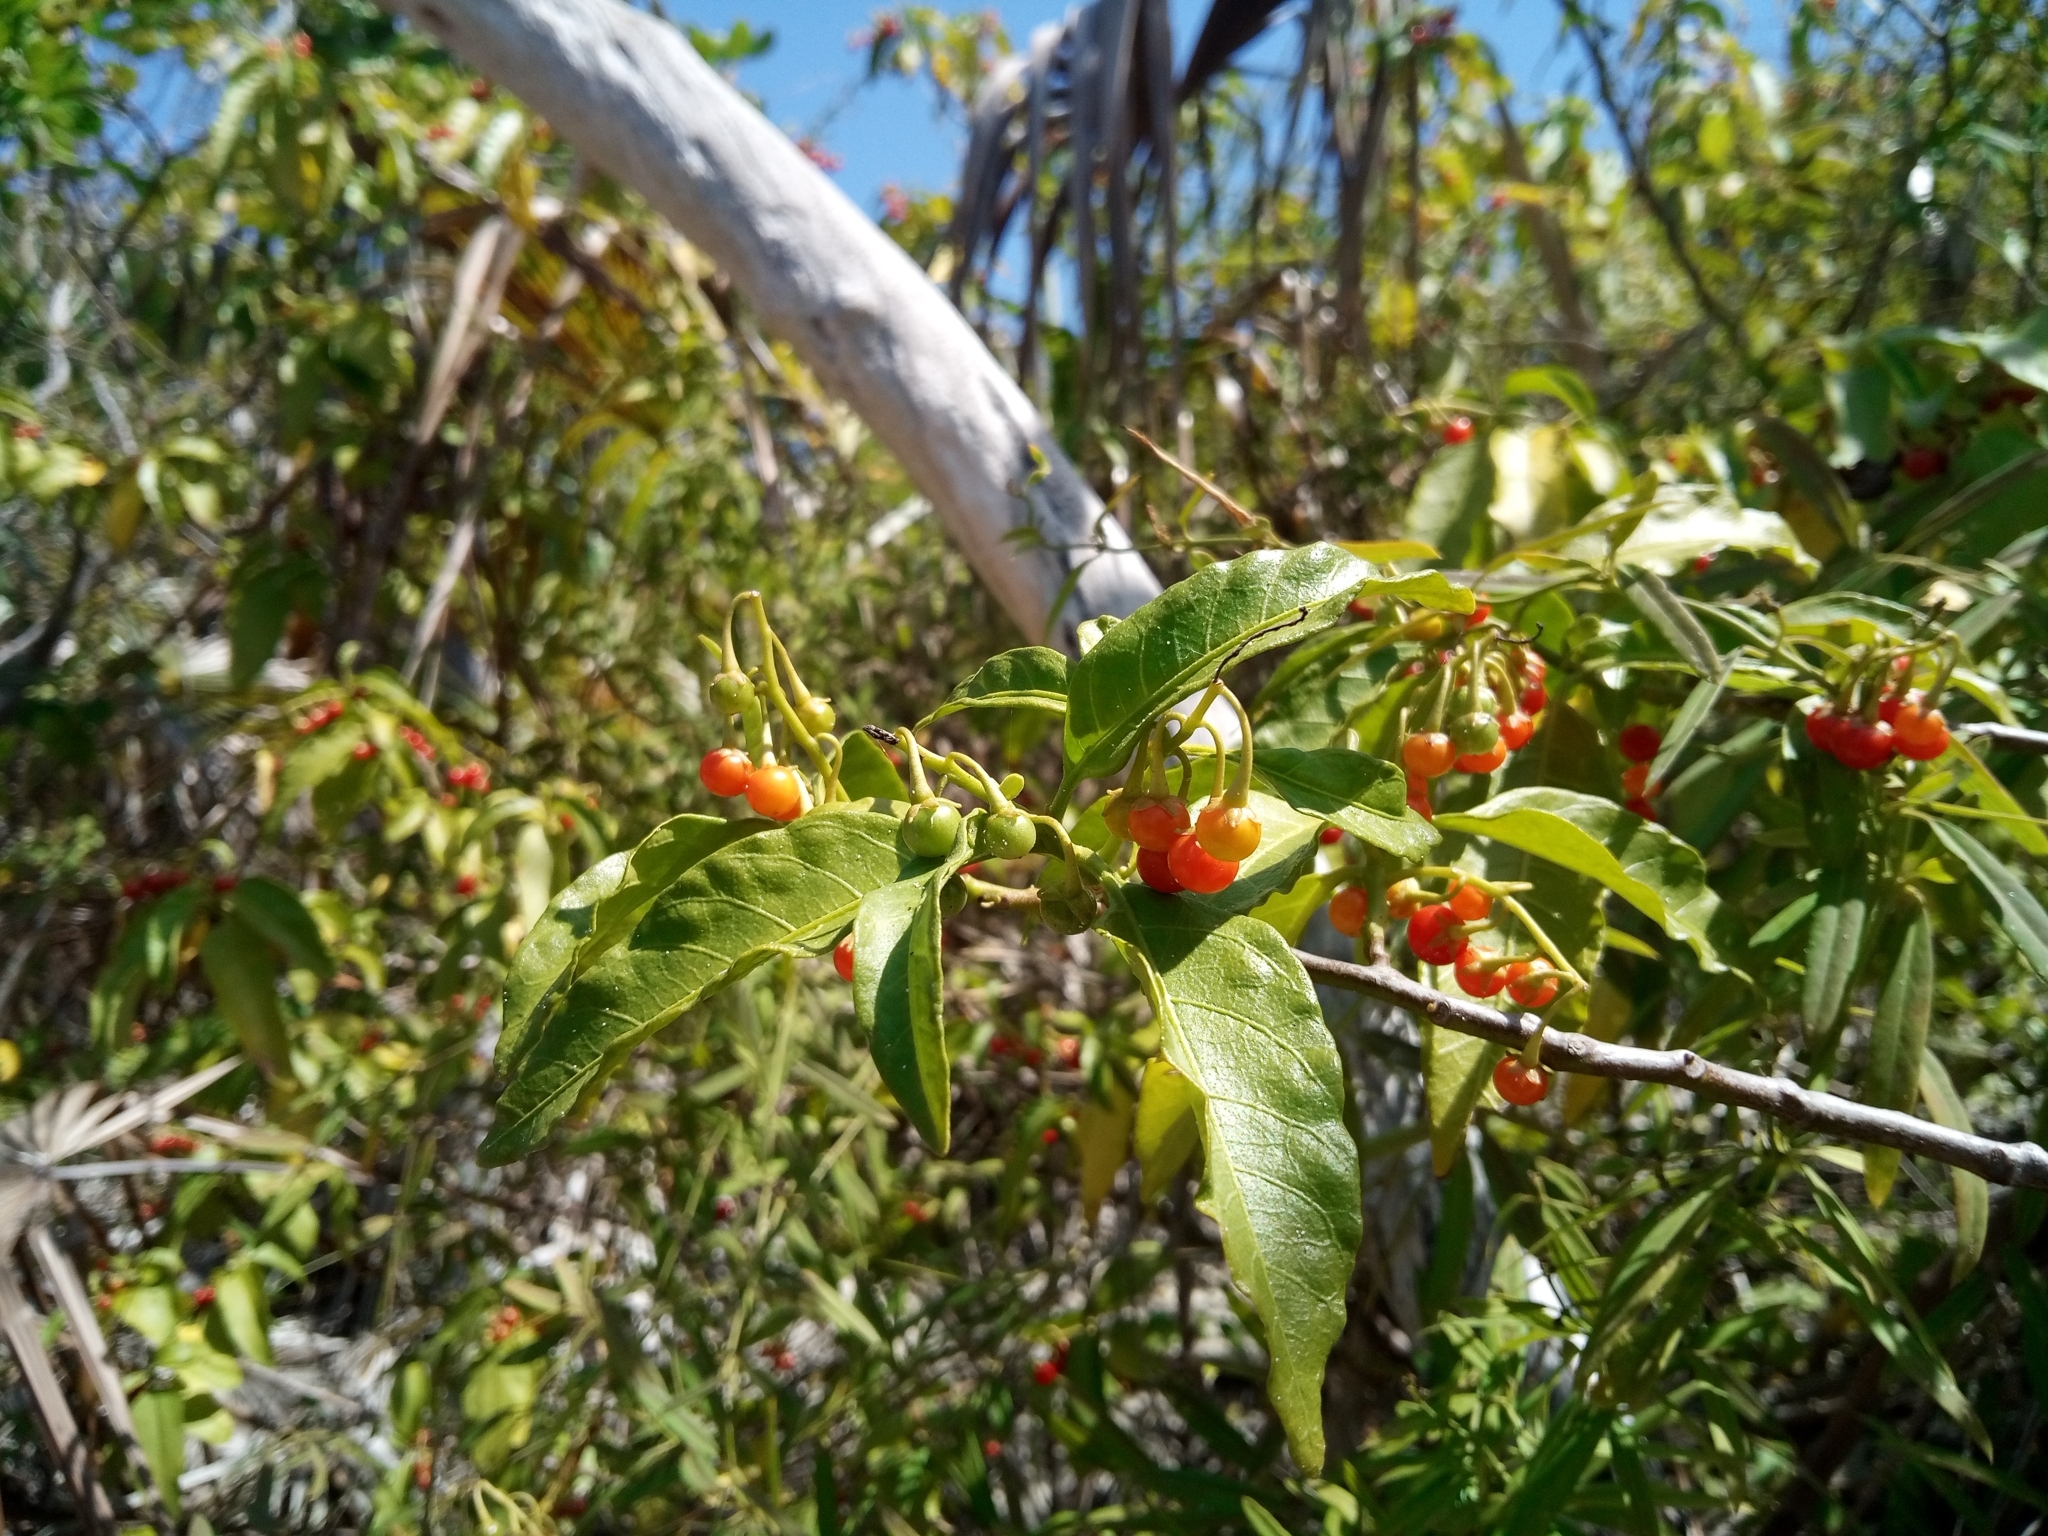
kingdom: Plantae
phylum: Tracheophyta
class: Magnoliopsida
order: Solanales
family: Solanaceae
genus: Solanum
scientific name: Solanum bahamense
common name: Canker-berry
